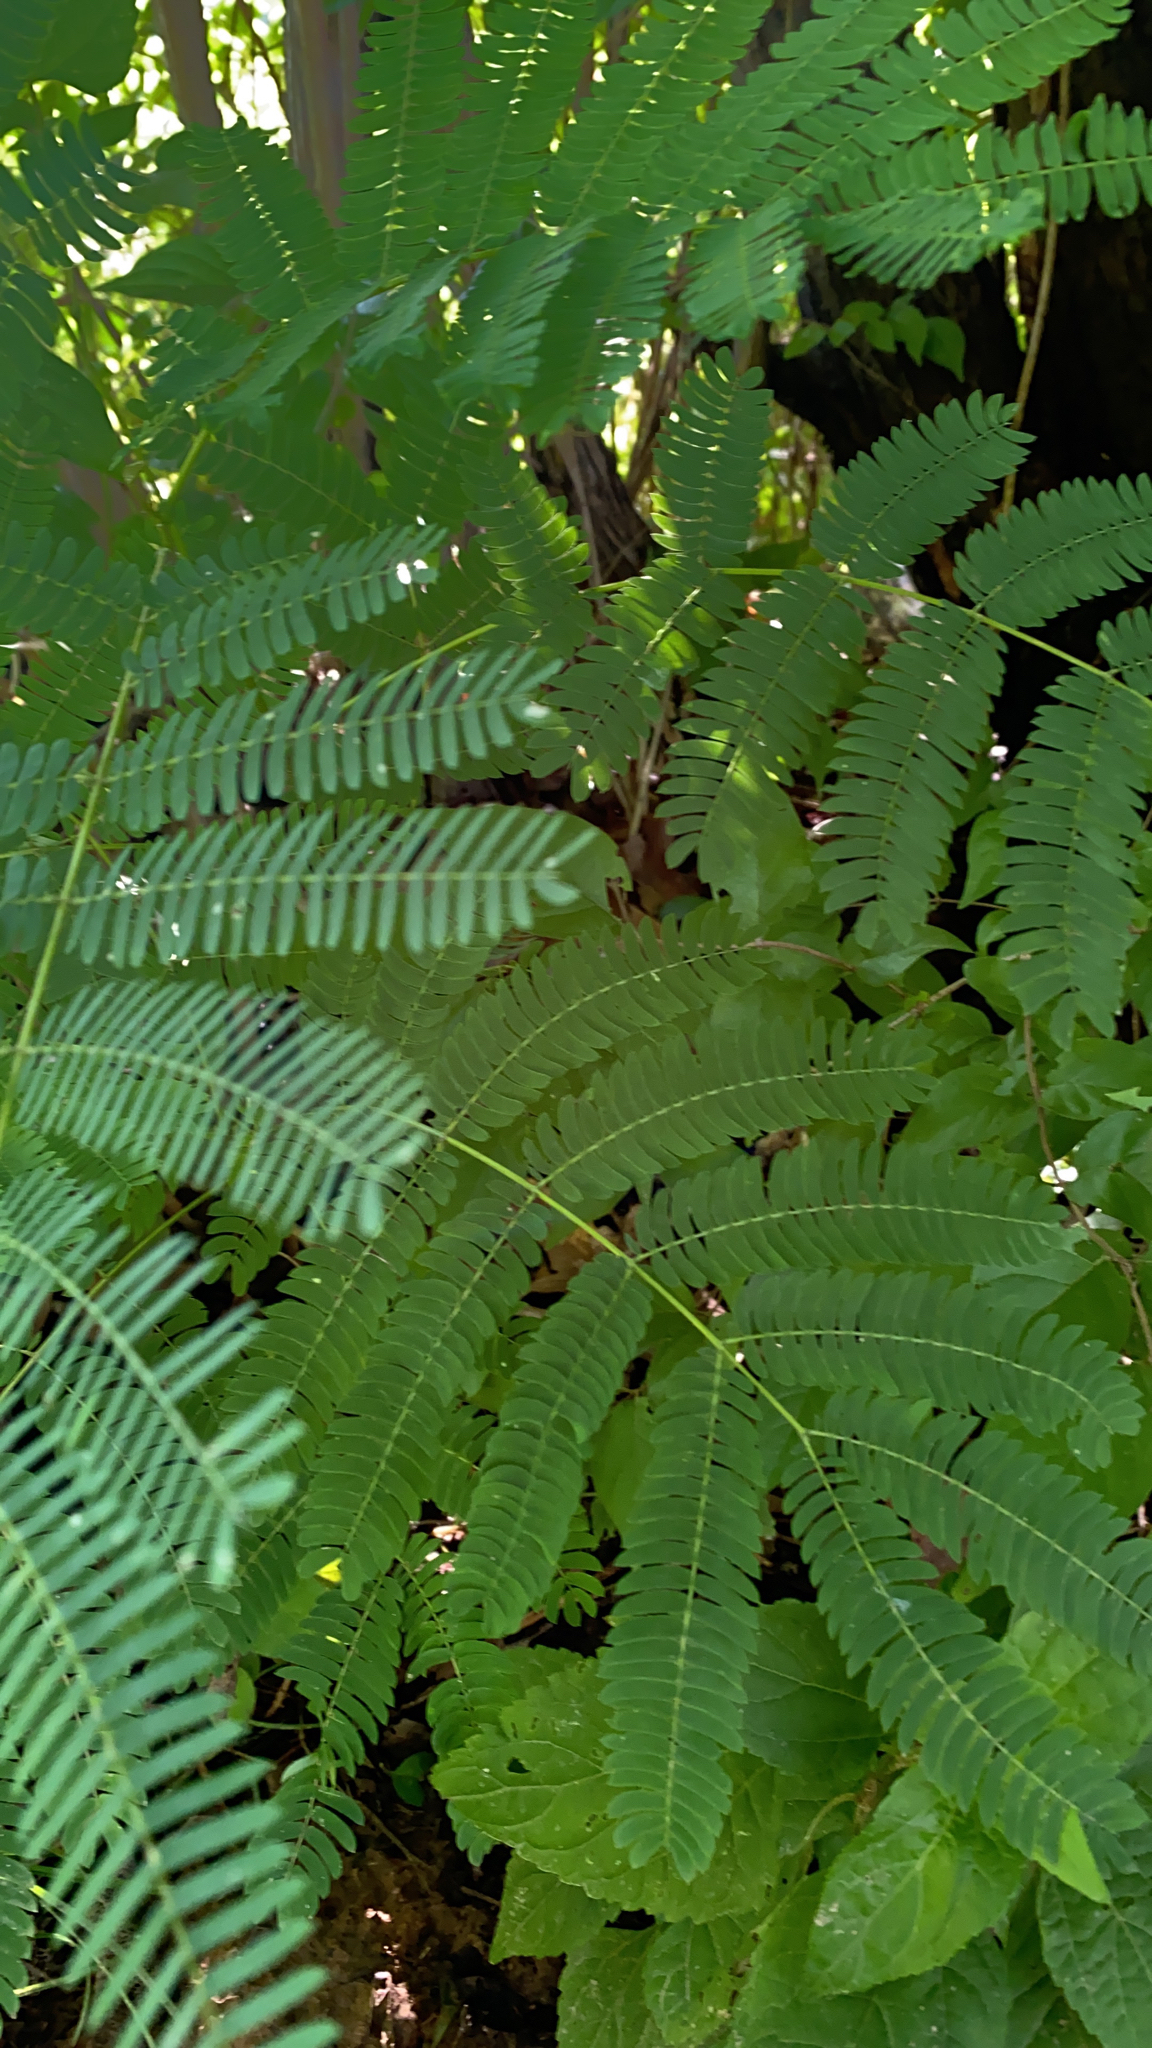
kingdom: Plantae
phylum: Tracheophyta
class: Magnoliopsida
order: Fabales
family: Fabaceae
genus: Albizia
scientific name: Albizia julibrissin
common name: Silktree
